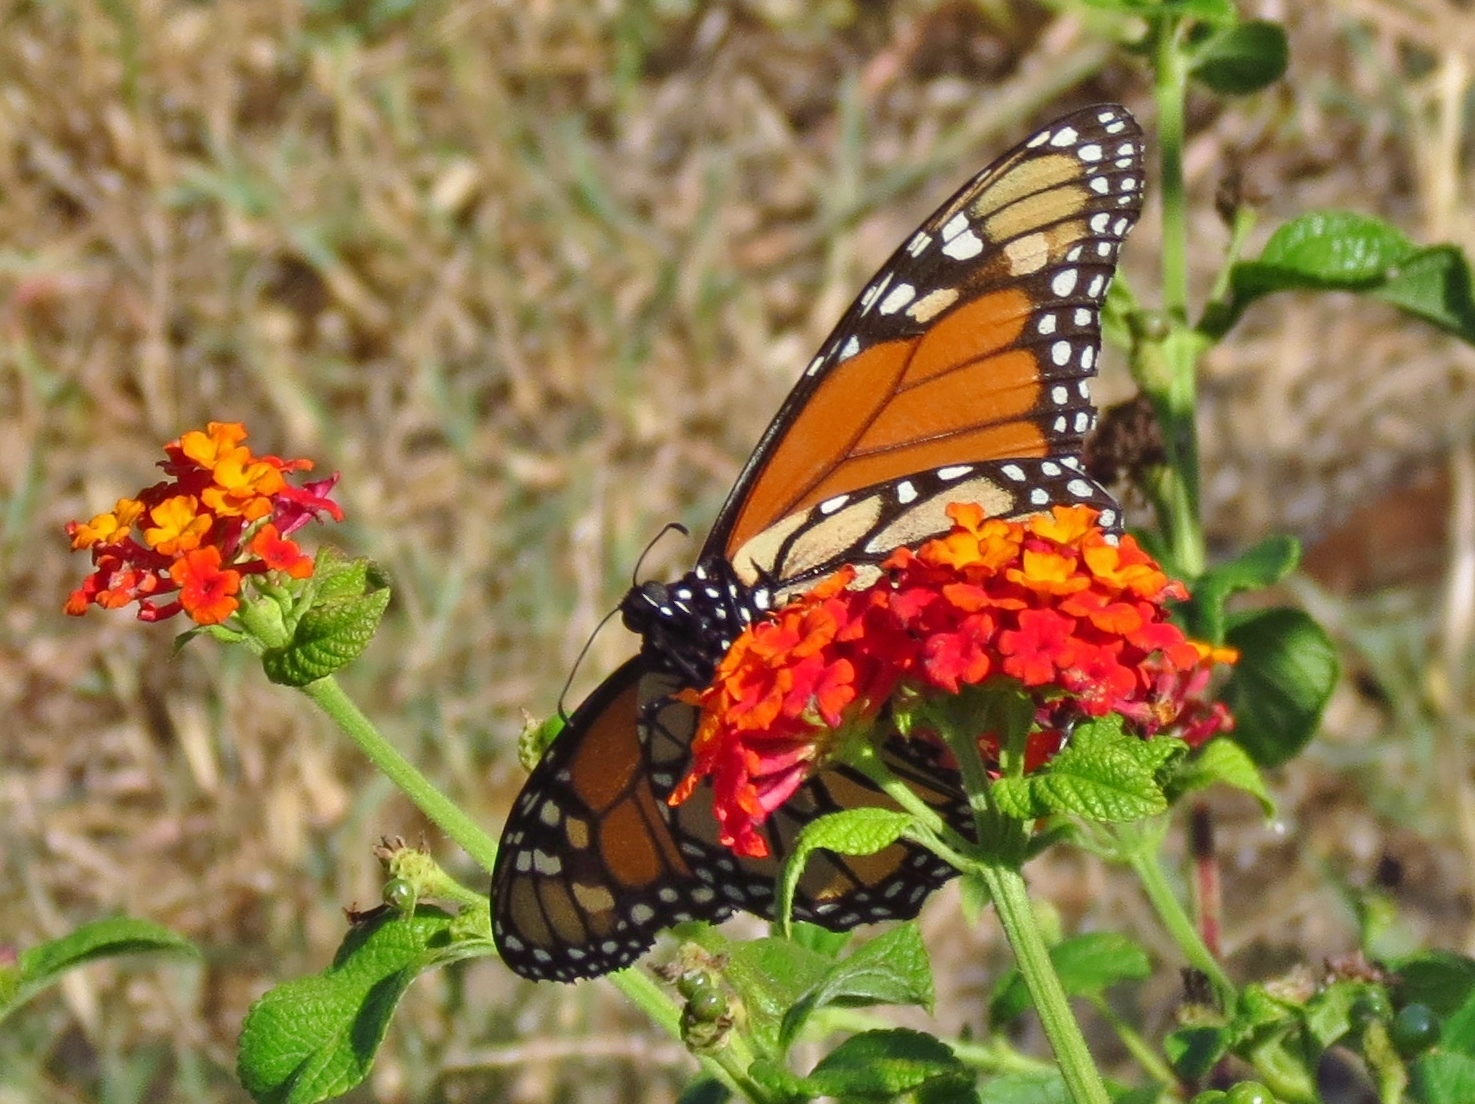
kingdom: Animalia
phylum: Arthropoda
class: Insecta
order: Lepidoptera
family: Nymphalidae
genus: Danaus
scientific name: Danaus plexippus
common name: Monarch
